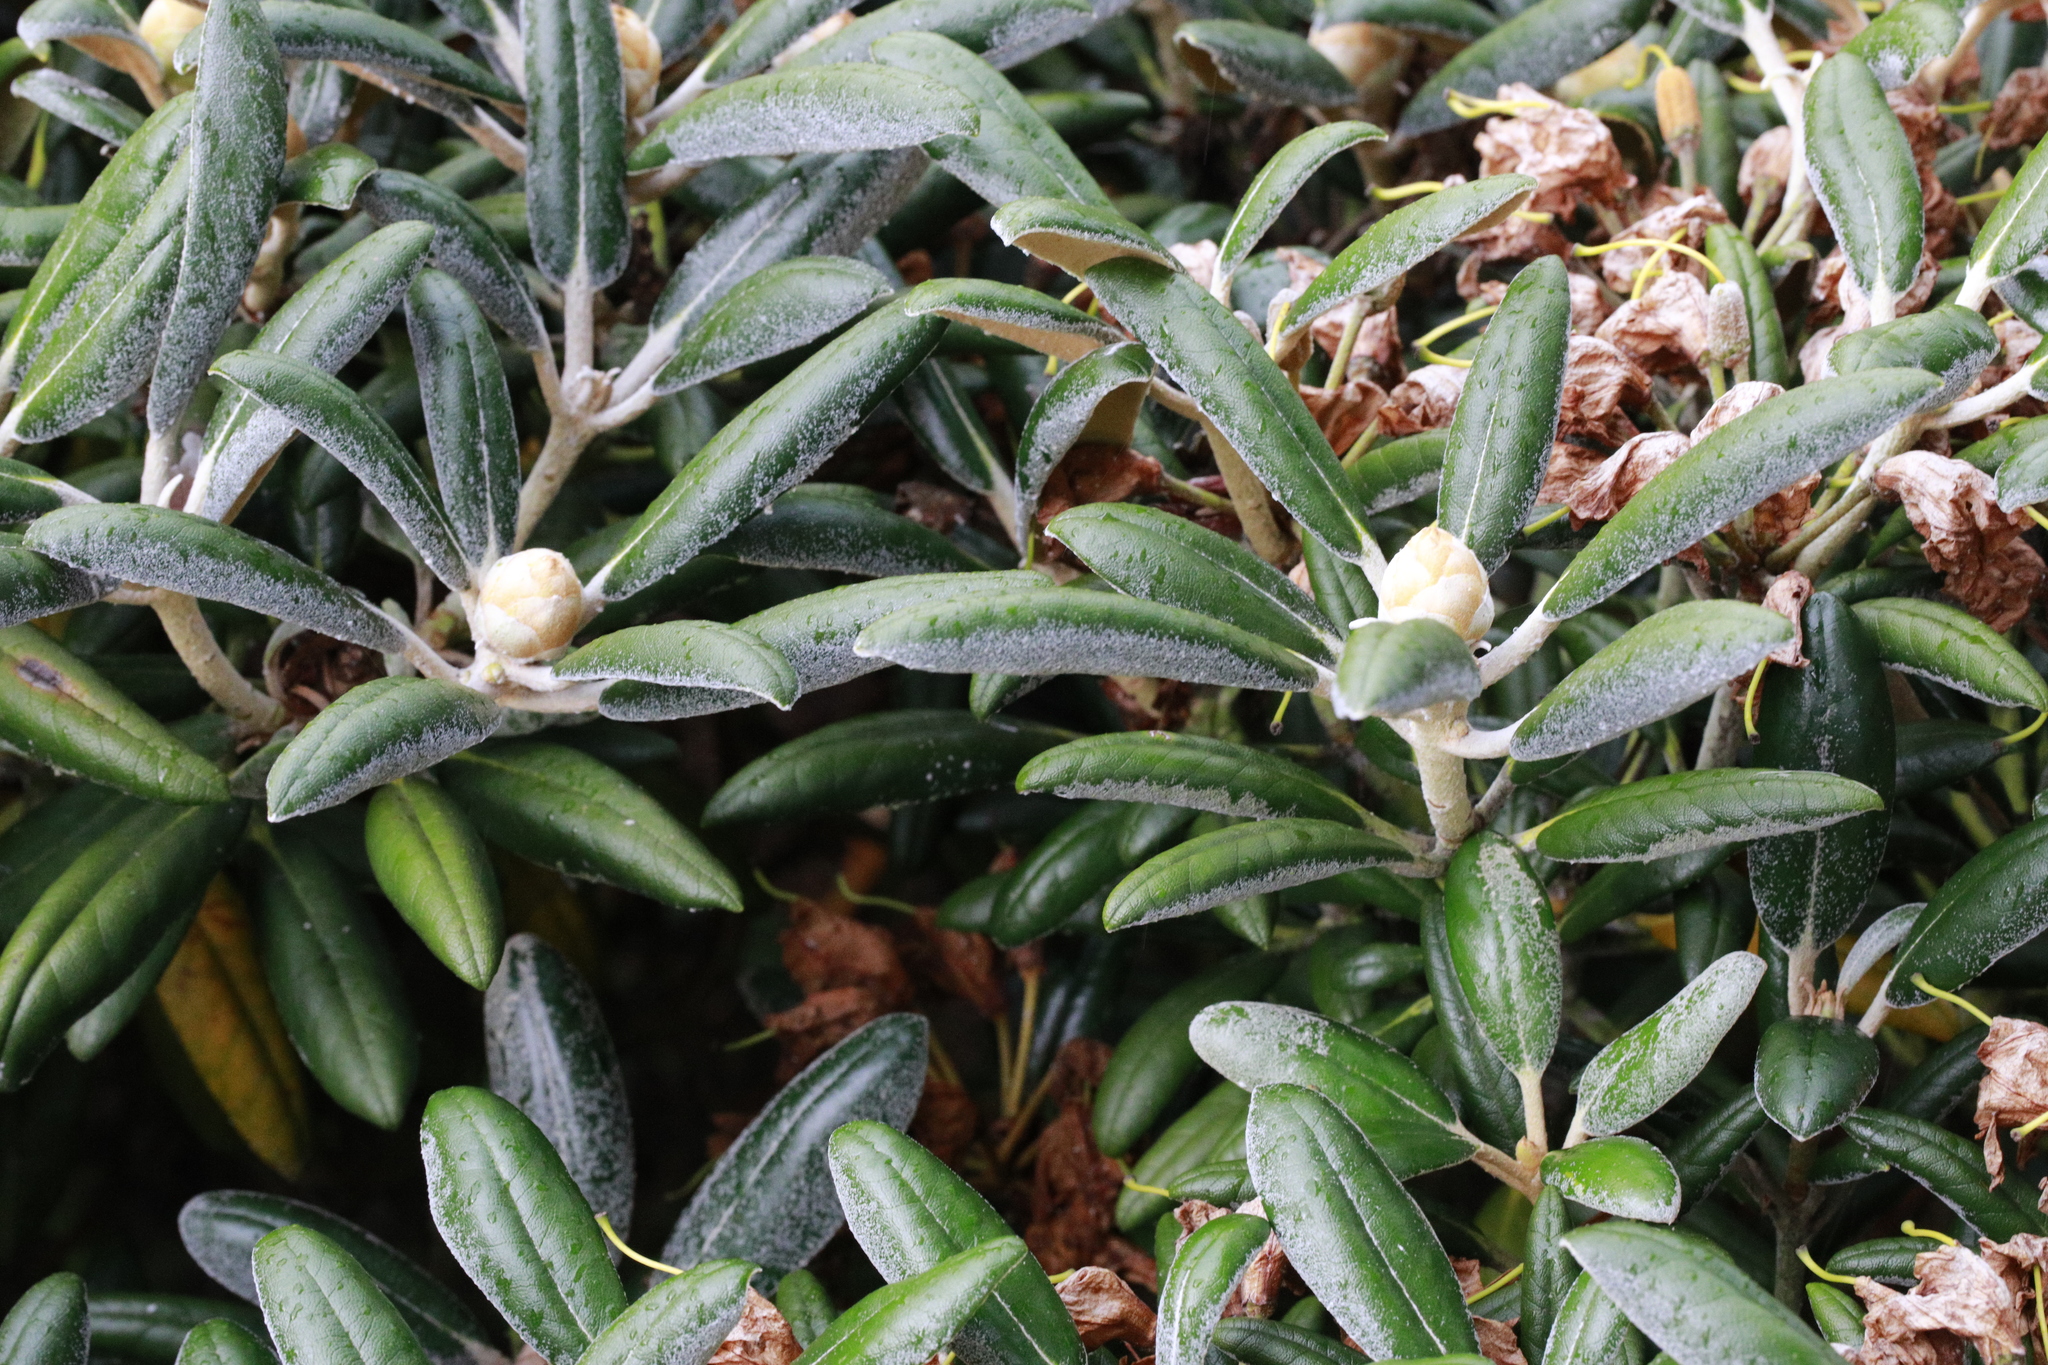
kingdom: Plantae
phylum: Tracheophyta
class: Magnoliopsida
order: Ericales
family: Ericaceae
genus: Rhododendron
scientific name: Rhododendron
